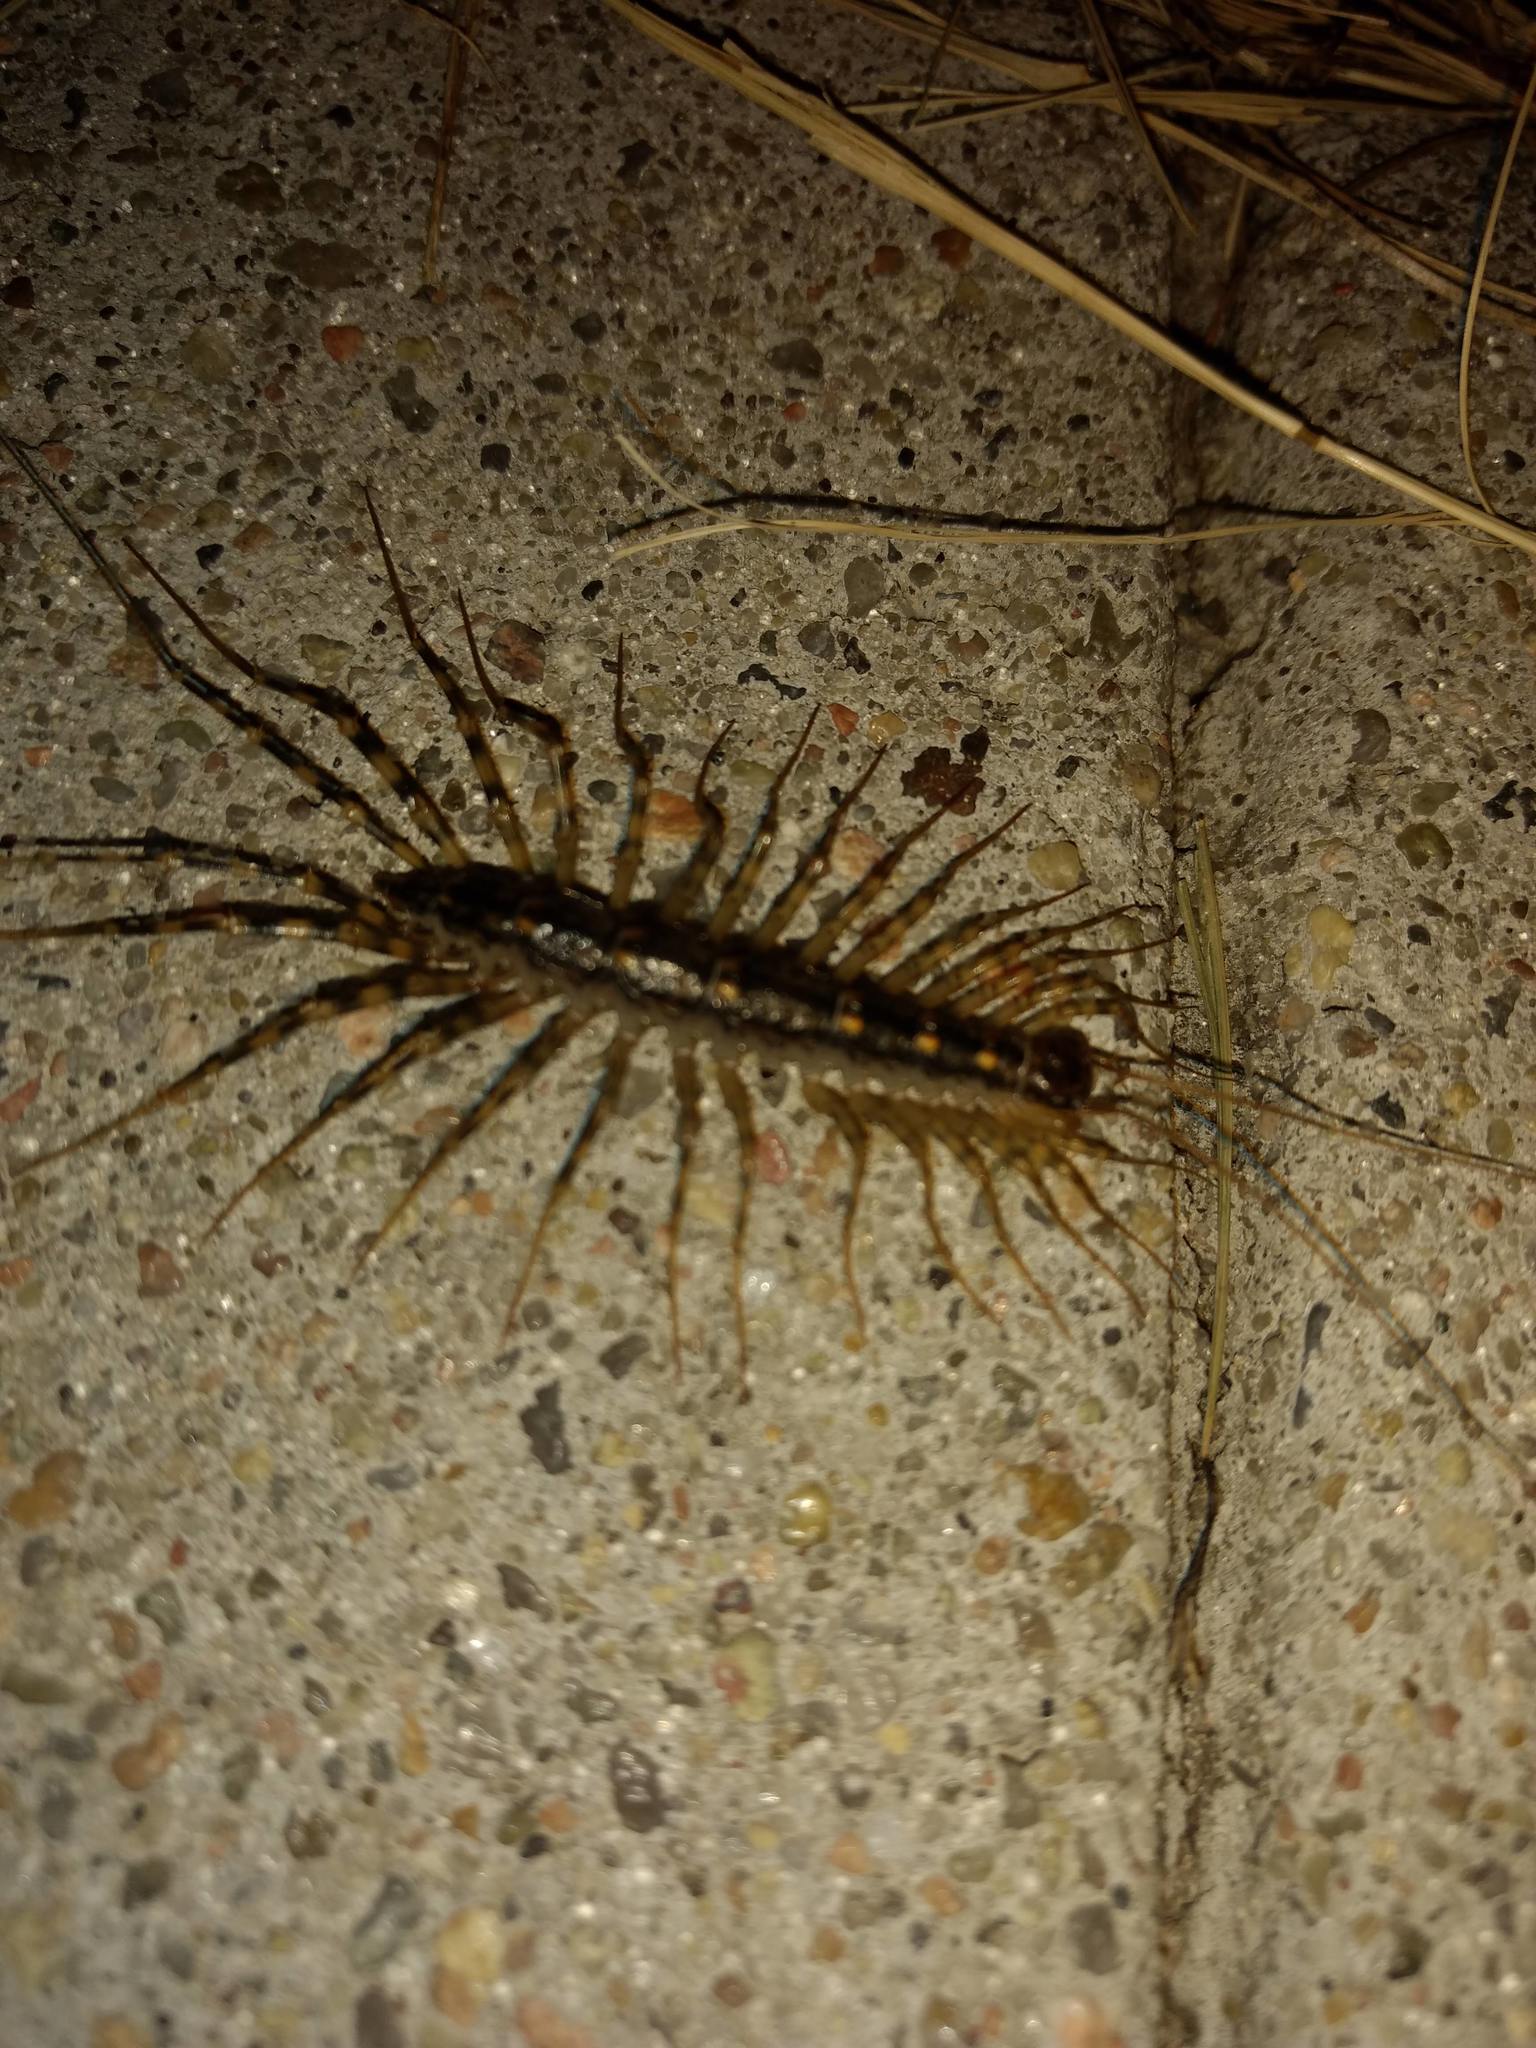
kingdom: Animalia
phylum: Arthropoda
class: Chilopoda
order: Scutigeromorpha
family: Scutigeridae
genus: Scutigera
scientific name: Scutigera coleoptrata
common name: House centipede
